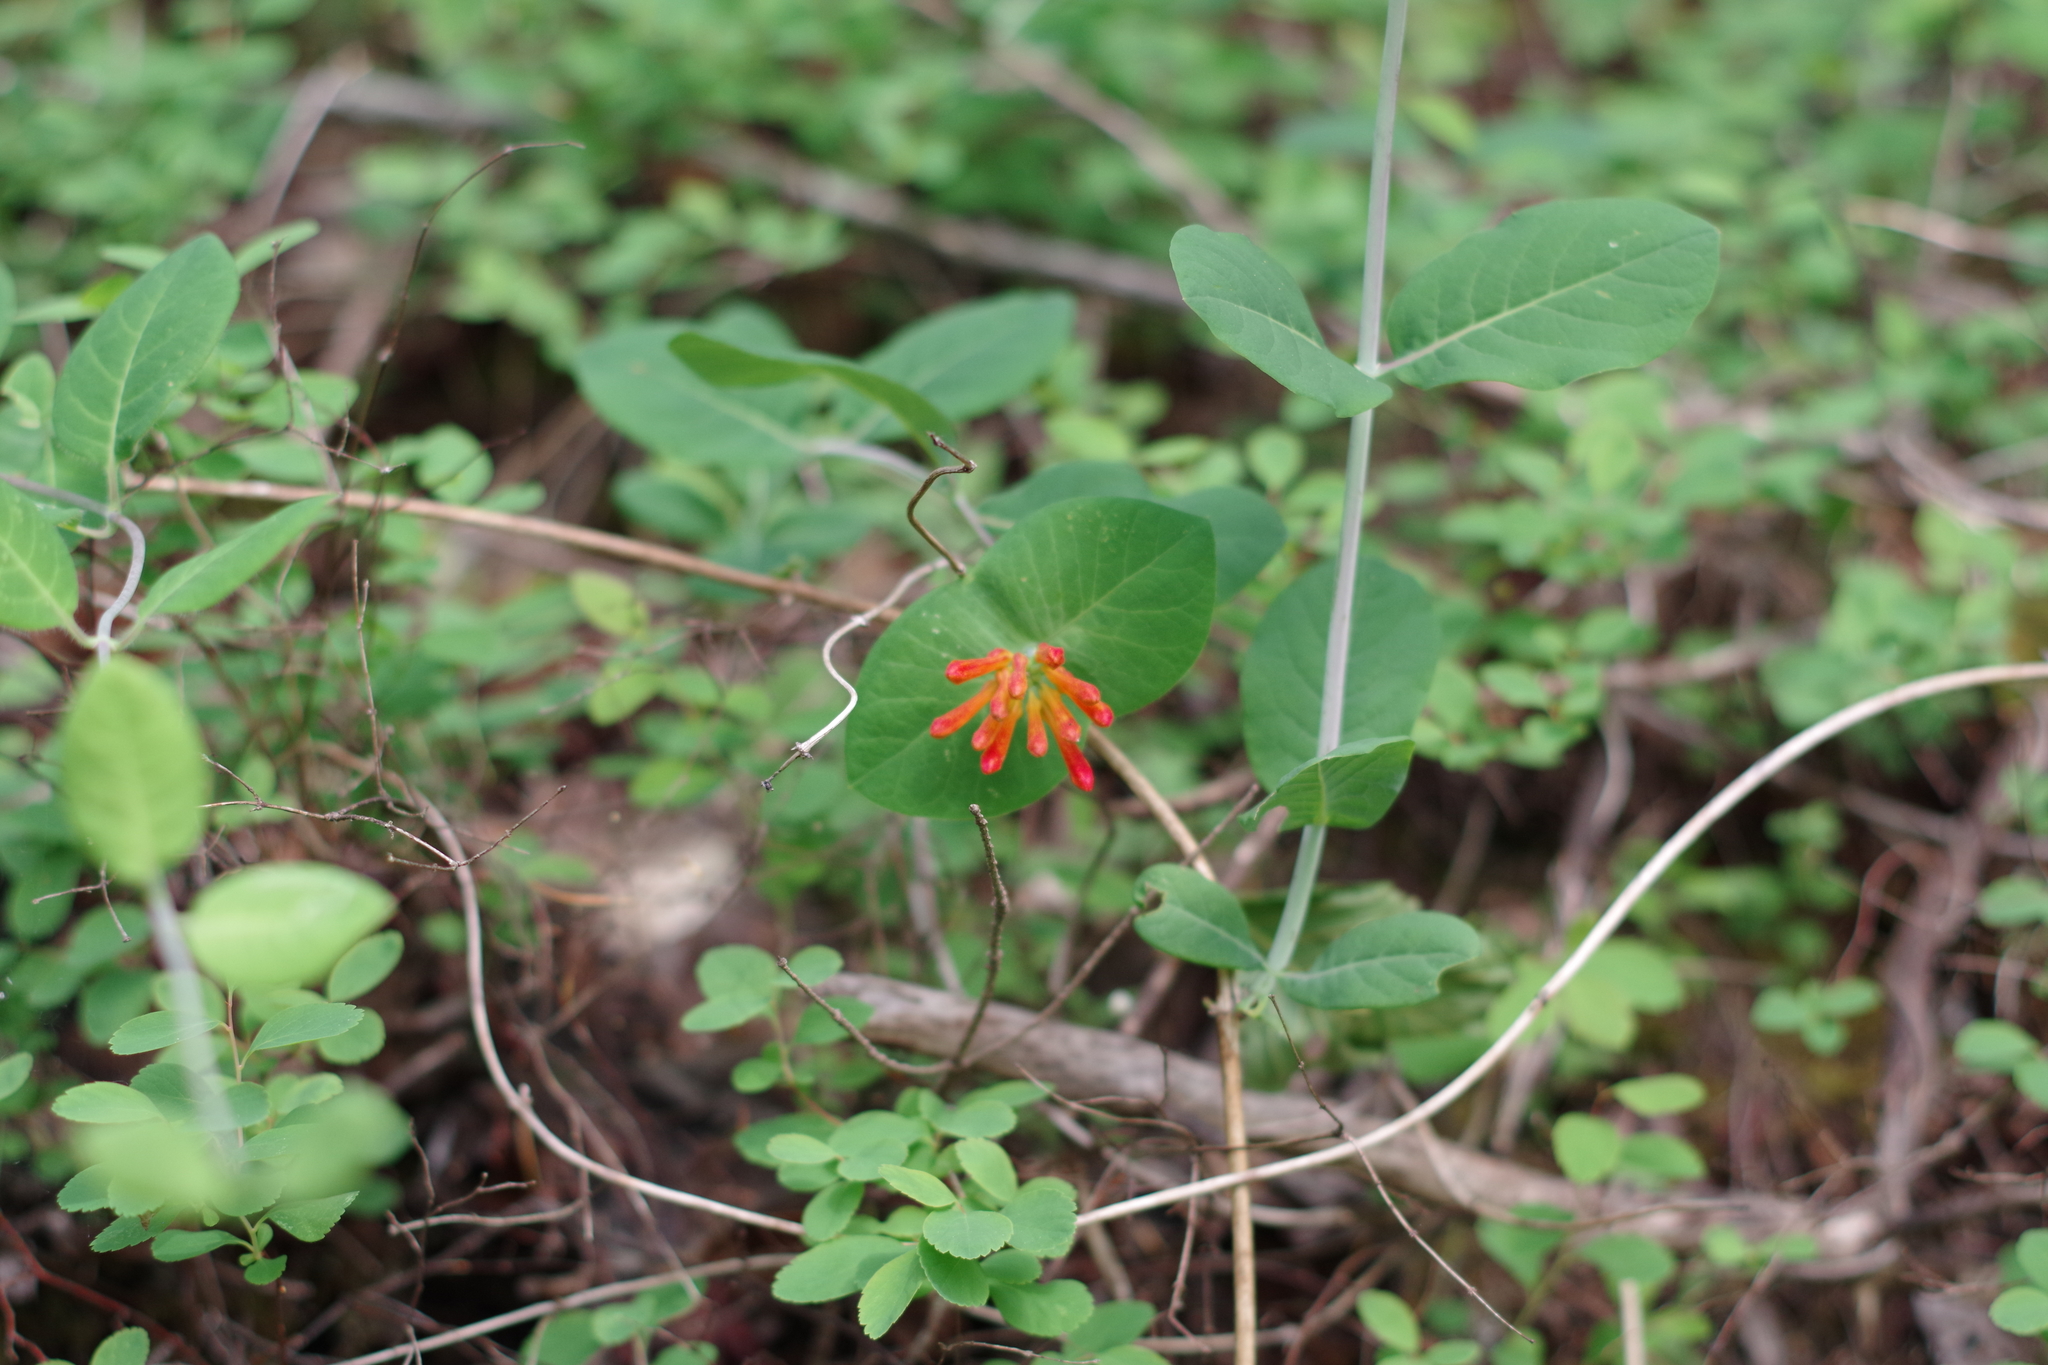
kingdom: Plantae
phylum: Tracheophyta
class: Magnoliopsida
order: Dipsacales
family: Caprifoliaceae
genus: Lonicera
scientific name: Lonicera ciliosa
